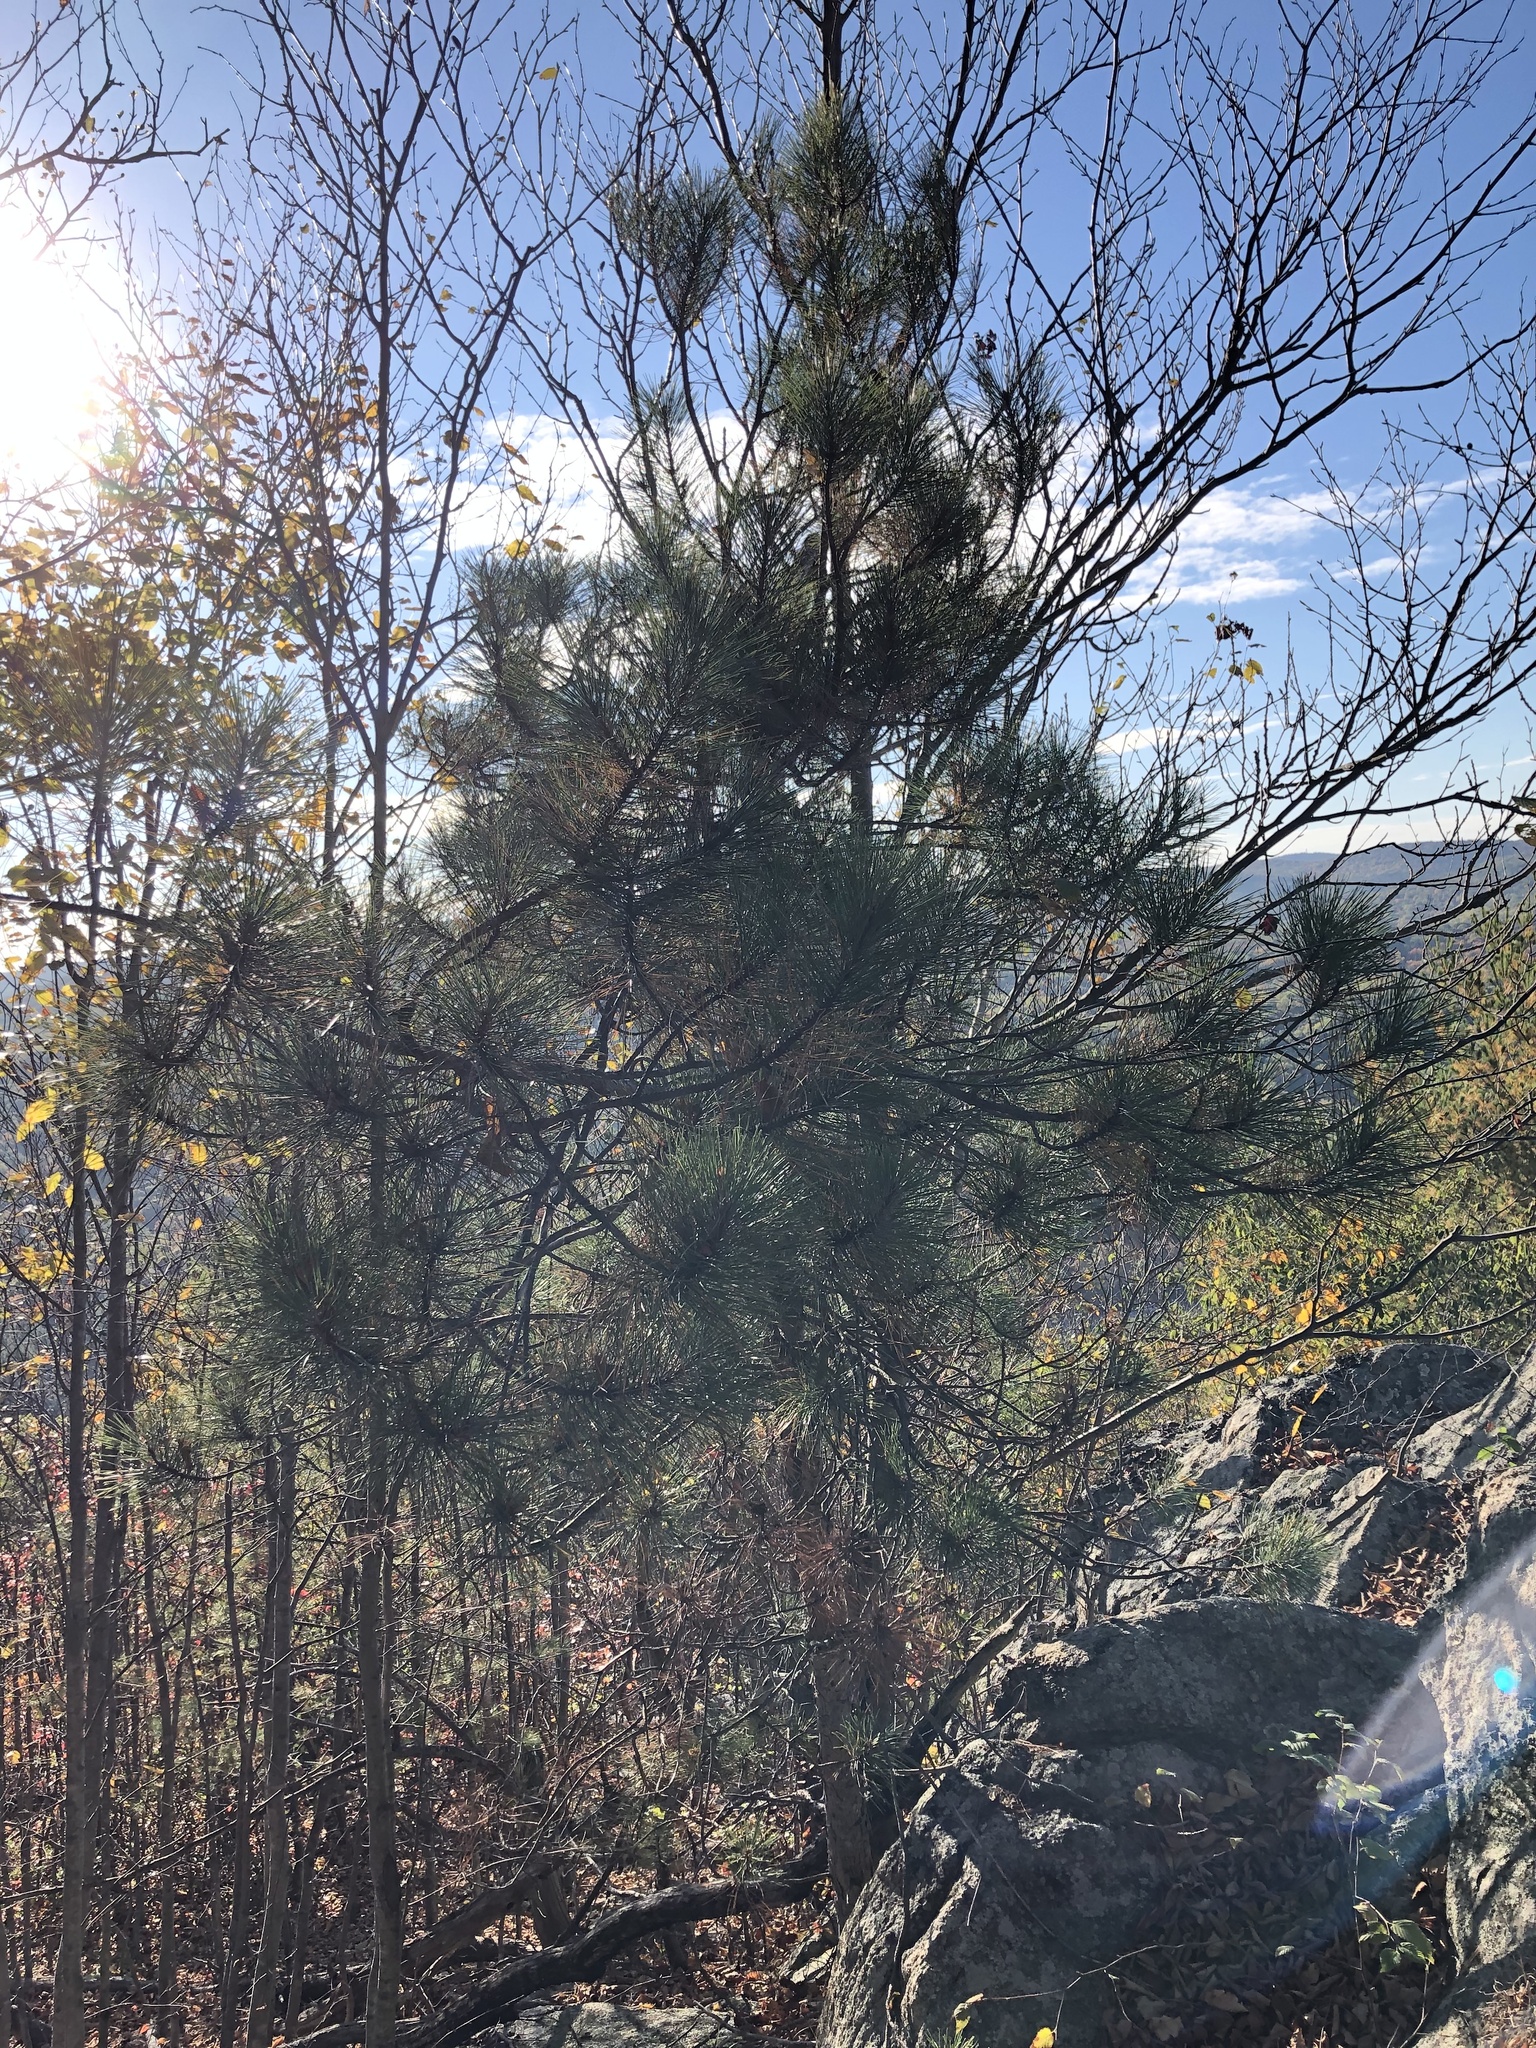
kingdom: Plantae
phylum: Tracheophyta
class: Pinopsida
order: Pinales
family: Pinaceae
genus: Pinus
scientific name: Pinus resinosa
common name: Norway pine
